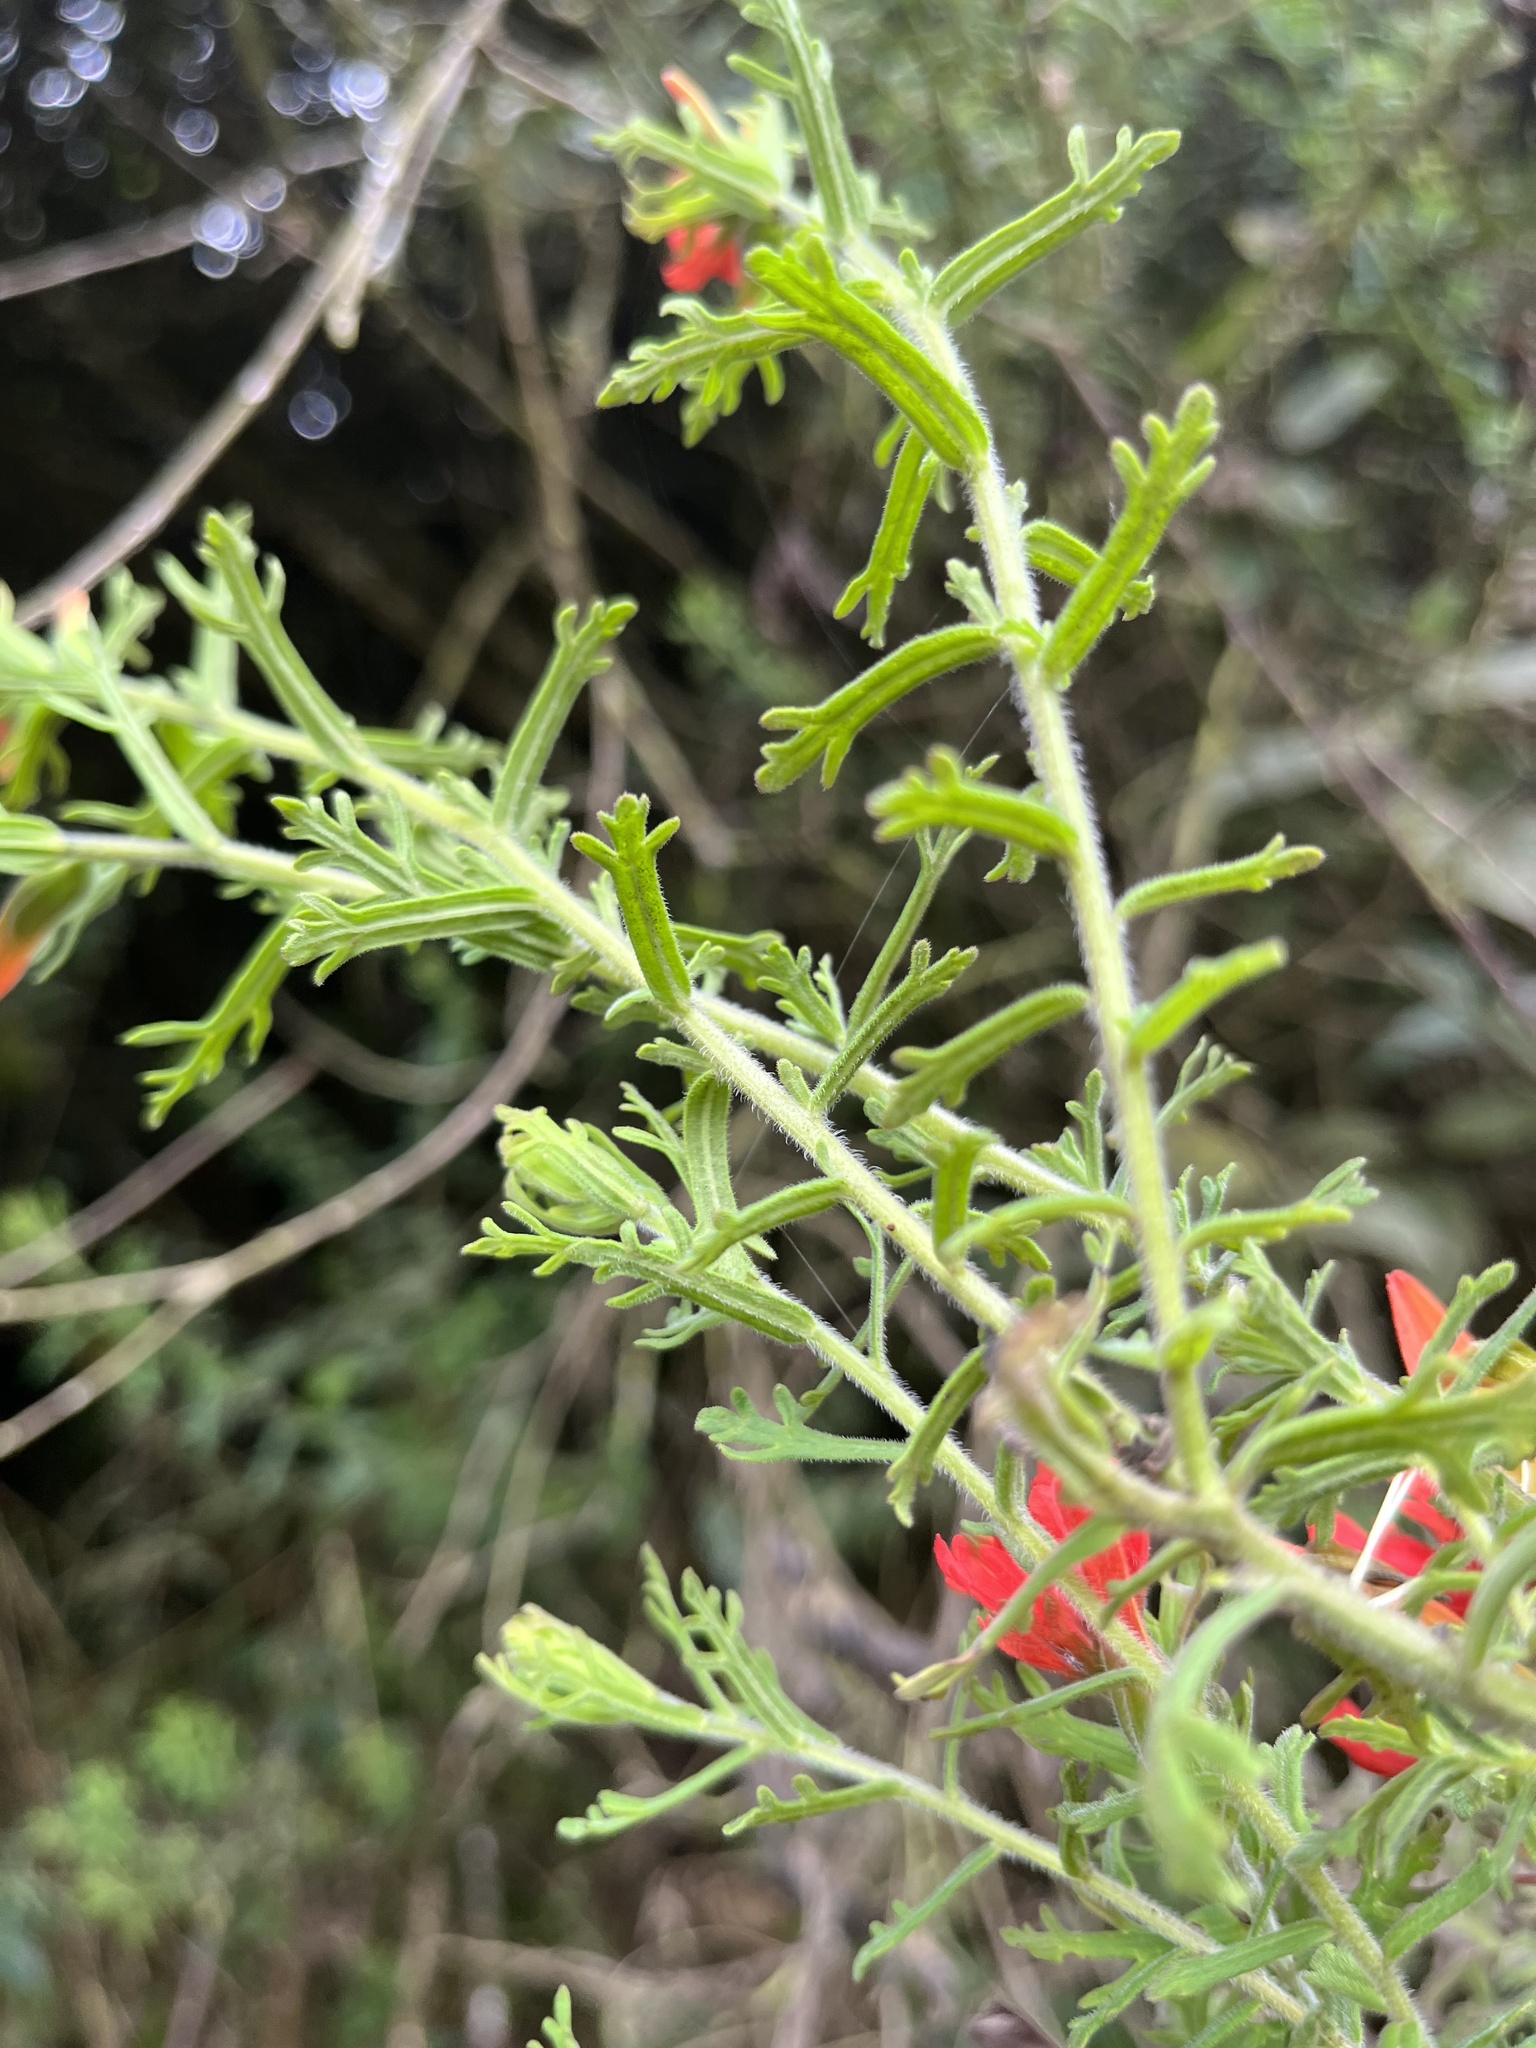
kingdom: Plantae
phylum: Tracheophyta
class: Magnoliopsida
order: Lamiales
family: Orobanchaceae
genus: Castilleja
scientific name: Castilleja fissifolia
